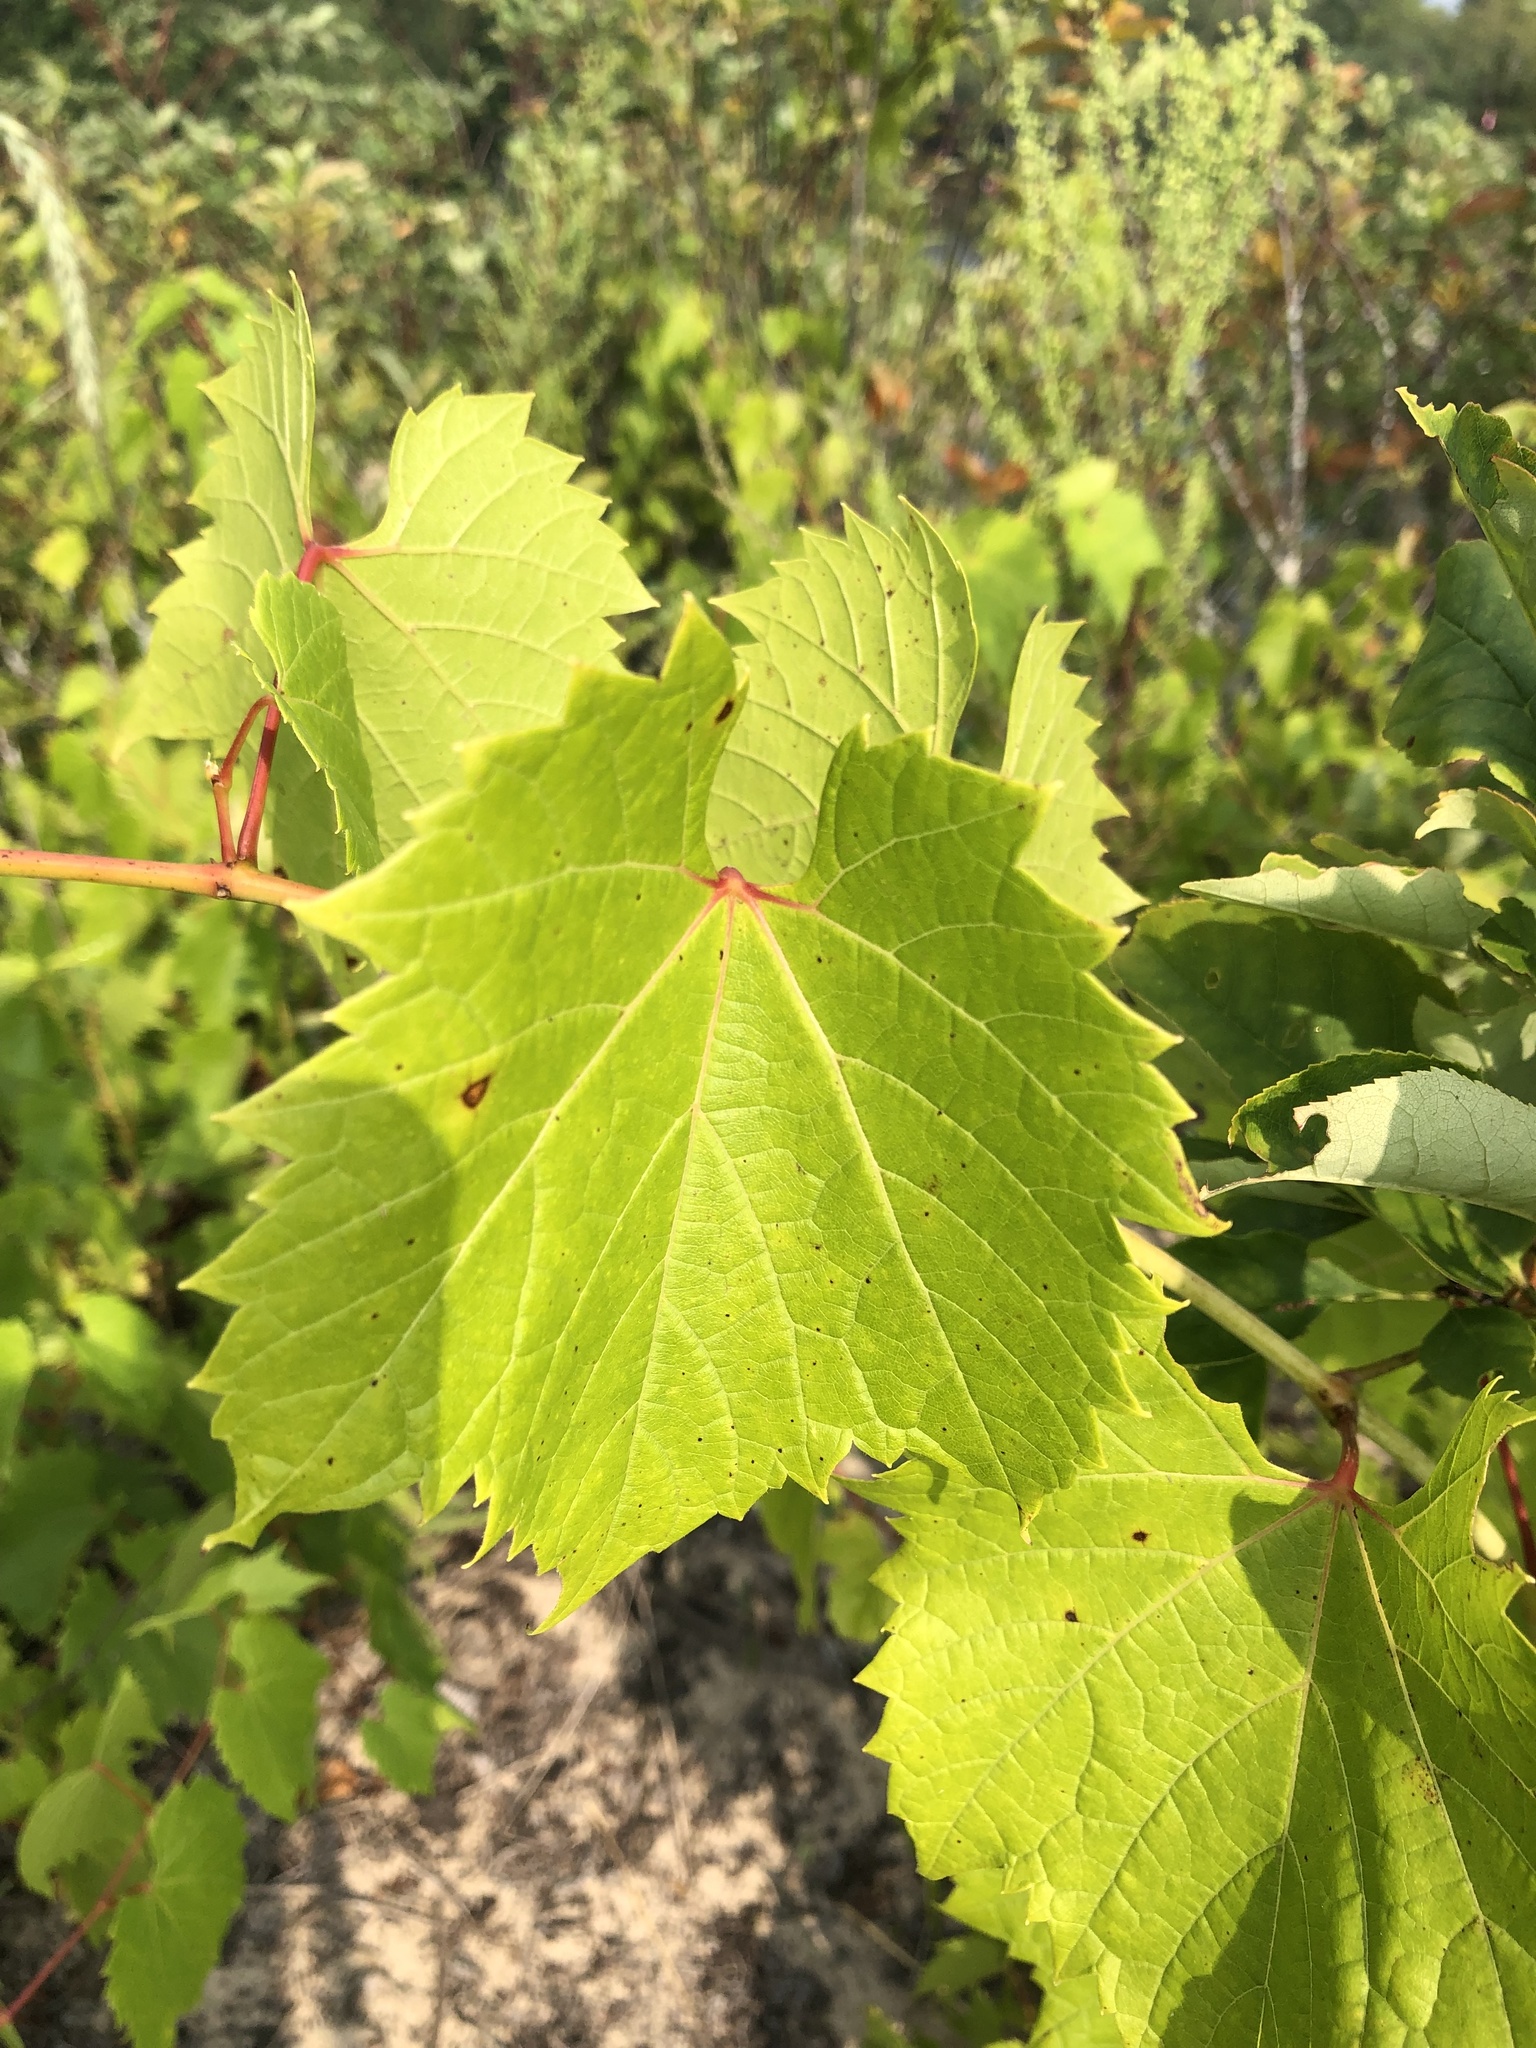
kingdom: Plantae
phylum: Tracheophyta
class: Magnoliopsida
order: Vitales
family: Vitaceae
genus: Vitis
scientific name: Vitis riparia
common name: Frost grape
